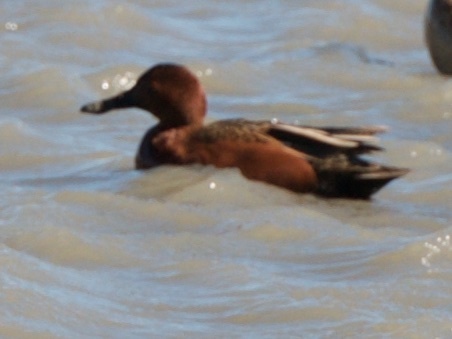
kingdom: Animalia
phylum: Chordata
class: Aves
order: Anseriformes
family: Anatidae
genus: Spatula
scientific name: Spatula cyanoptera
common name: Cinnamon teal
